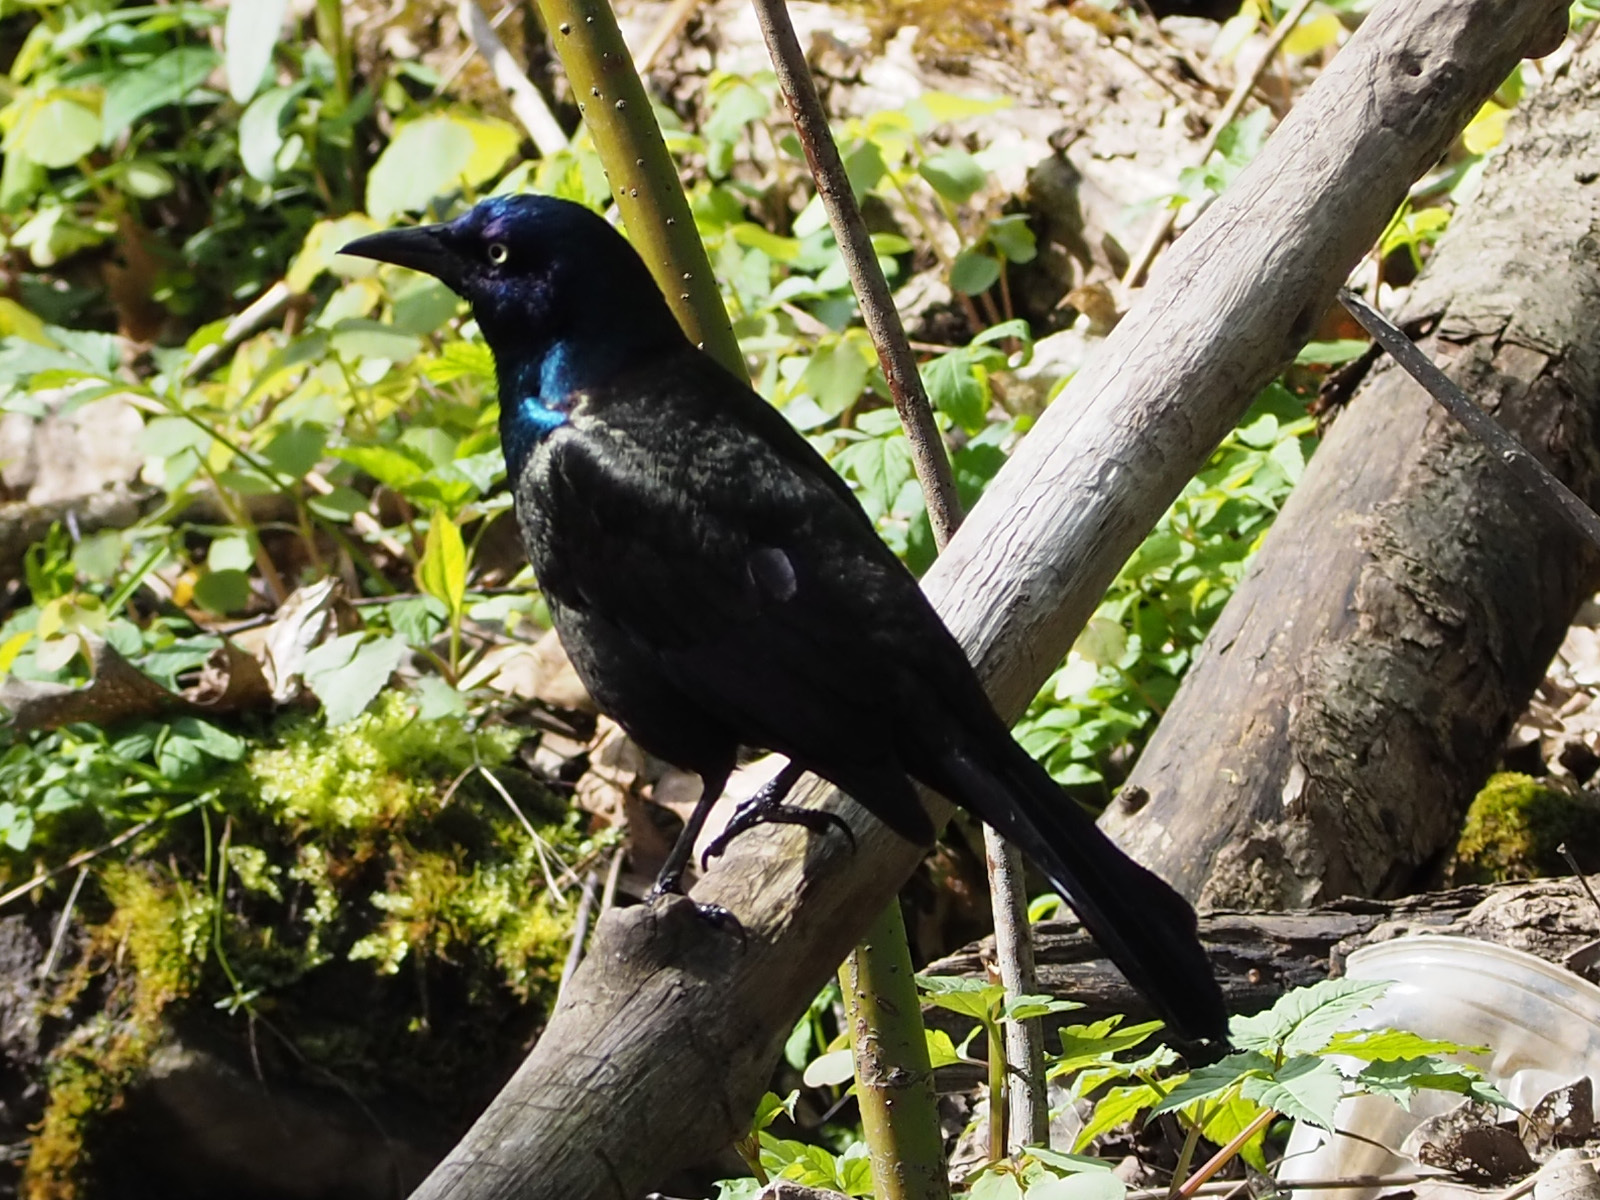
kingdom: Animalia
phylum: Chordata
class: Aves
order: Passeriformes
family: Icteridae
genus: Quiscalus
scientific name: Quiscalus quiscula
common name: Common grackle
